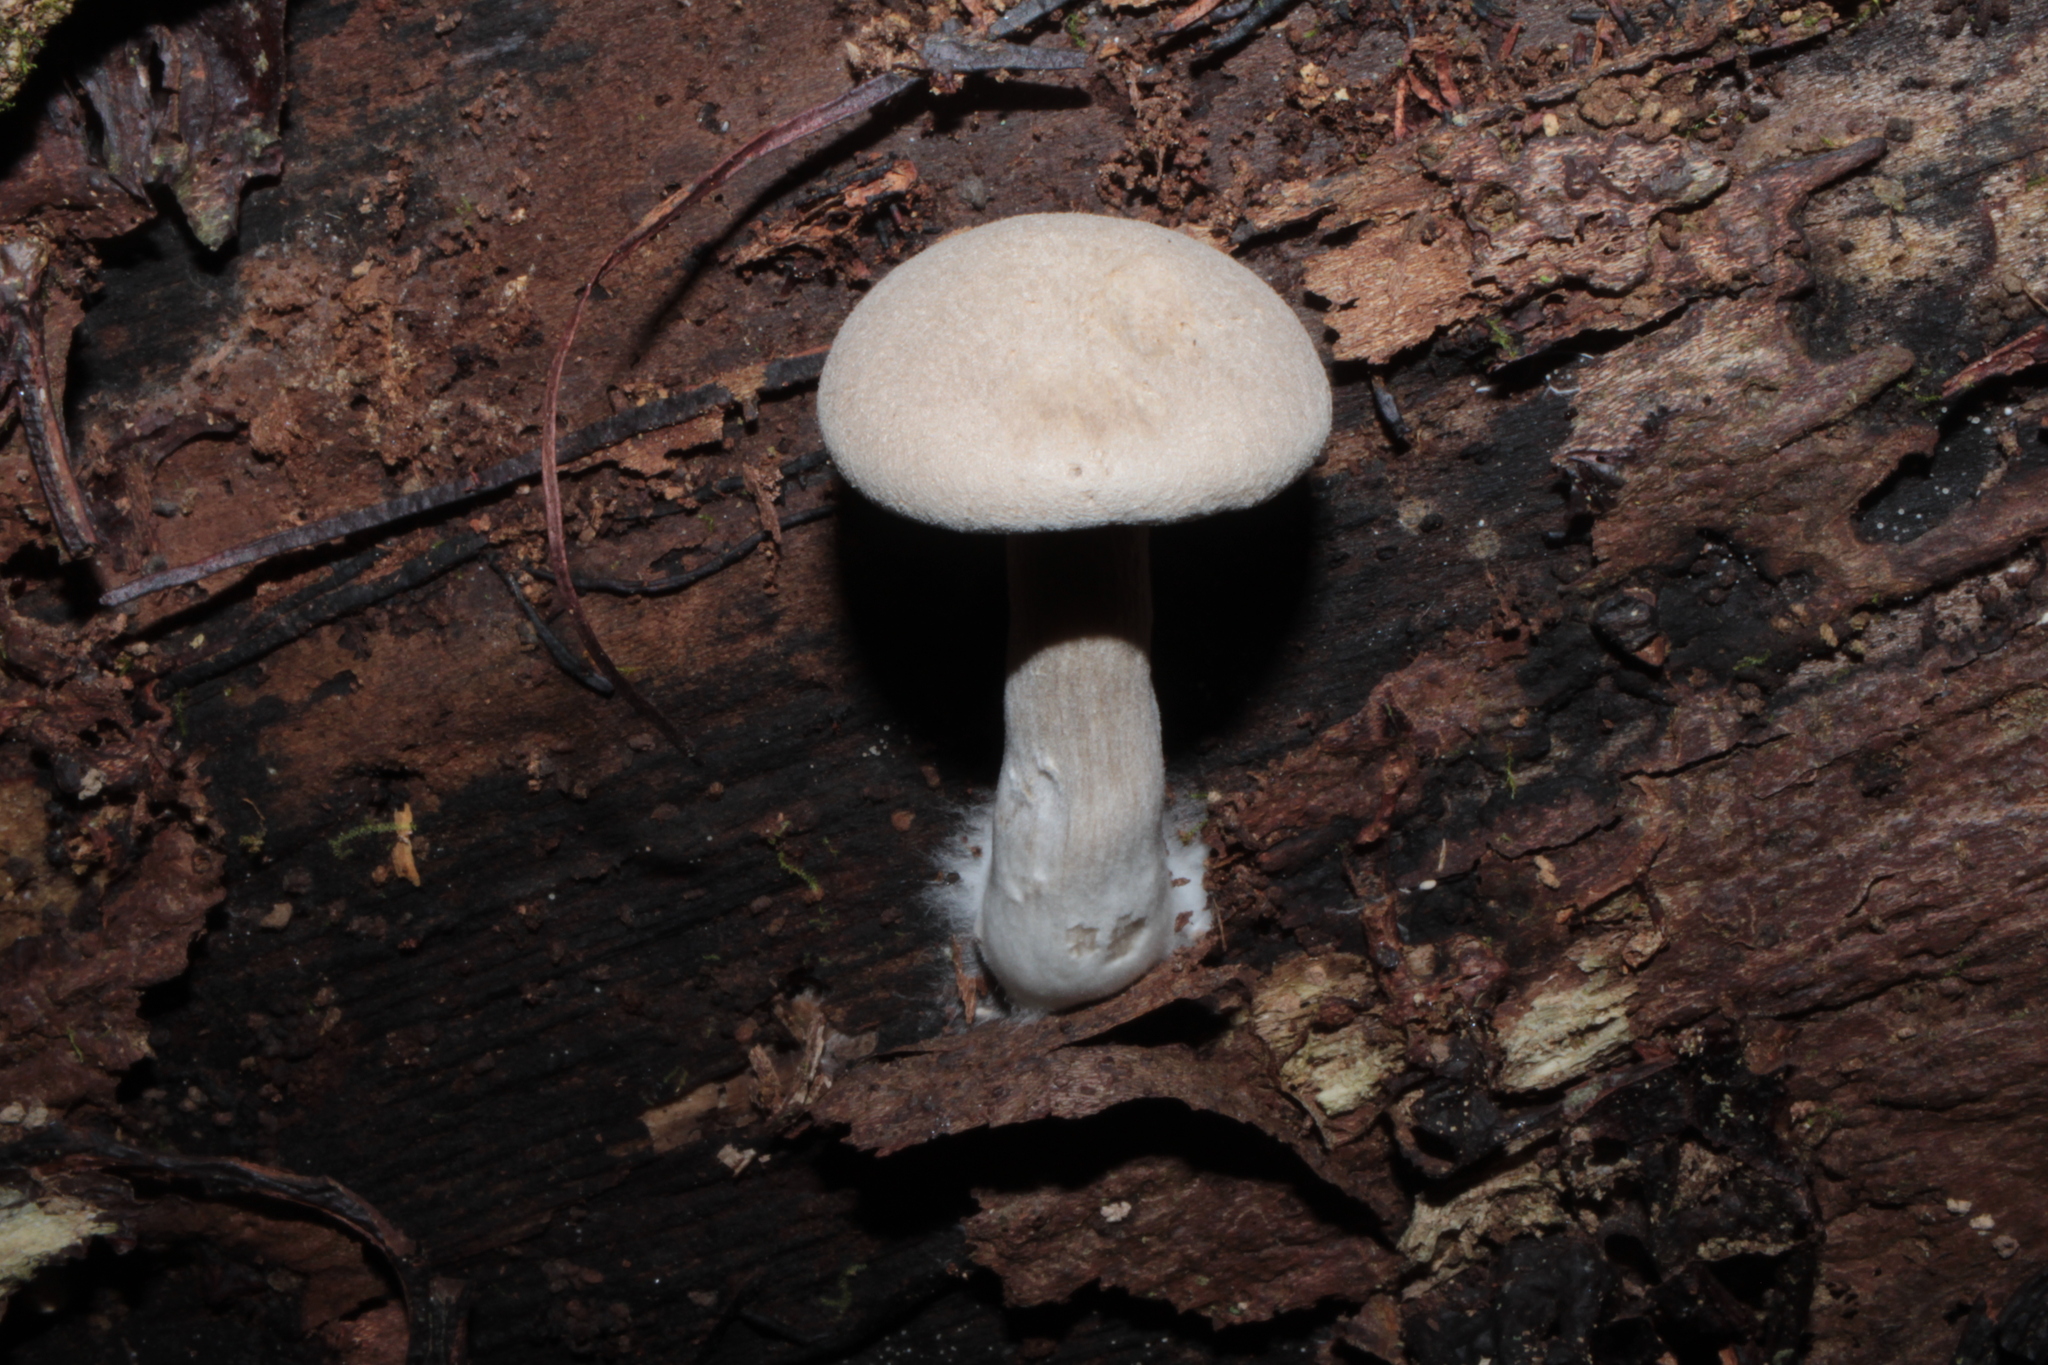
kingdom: Fungi
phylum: Basidiomycota
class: Agaricomycetes
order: Agaricales
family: Entolomataceae
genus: Entoloma
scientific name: Entoloma abortivum
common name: Aborted entoloma
